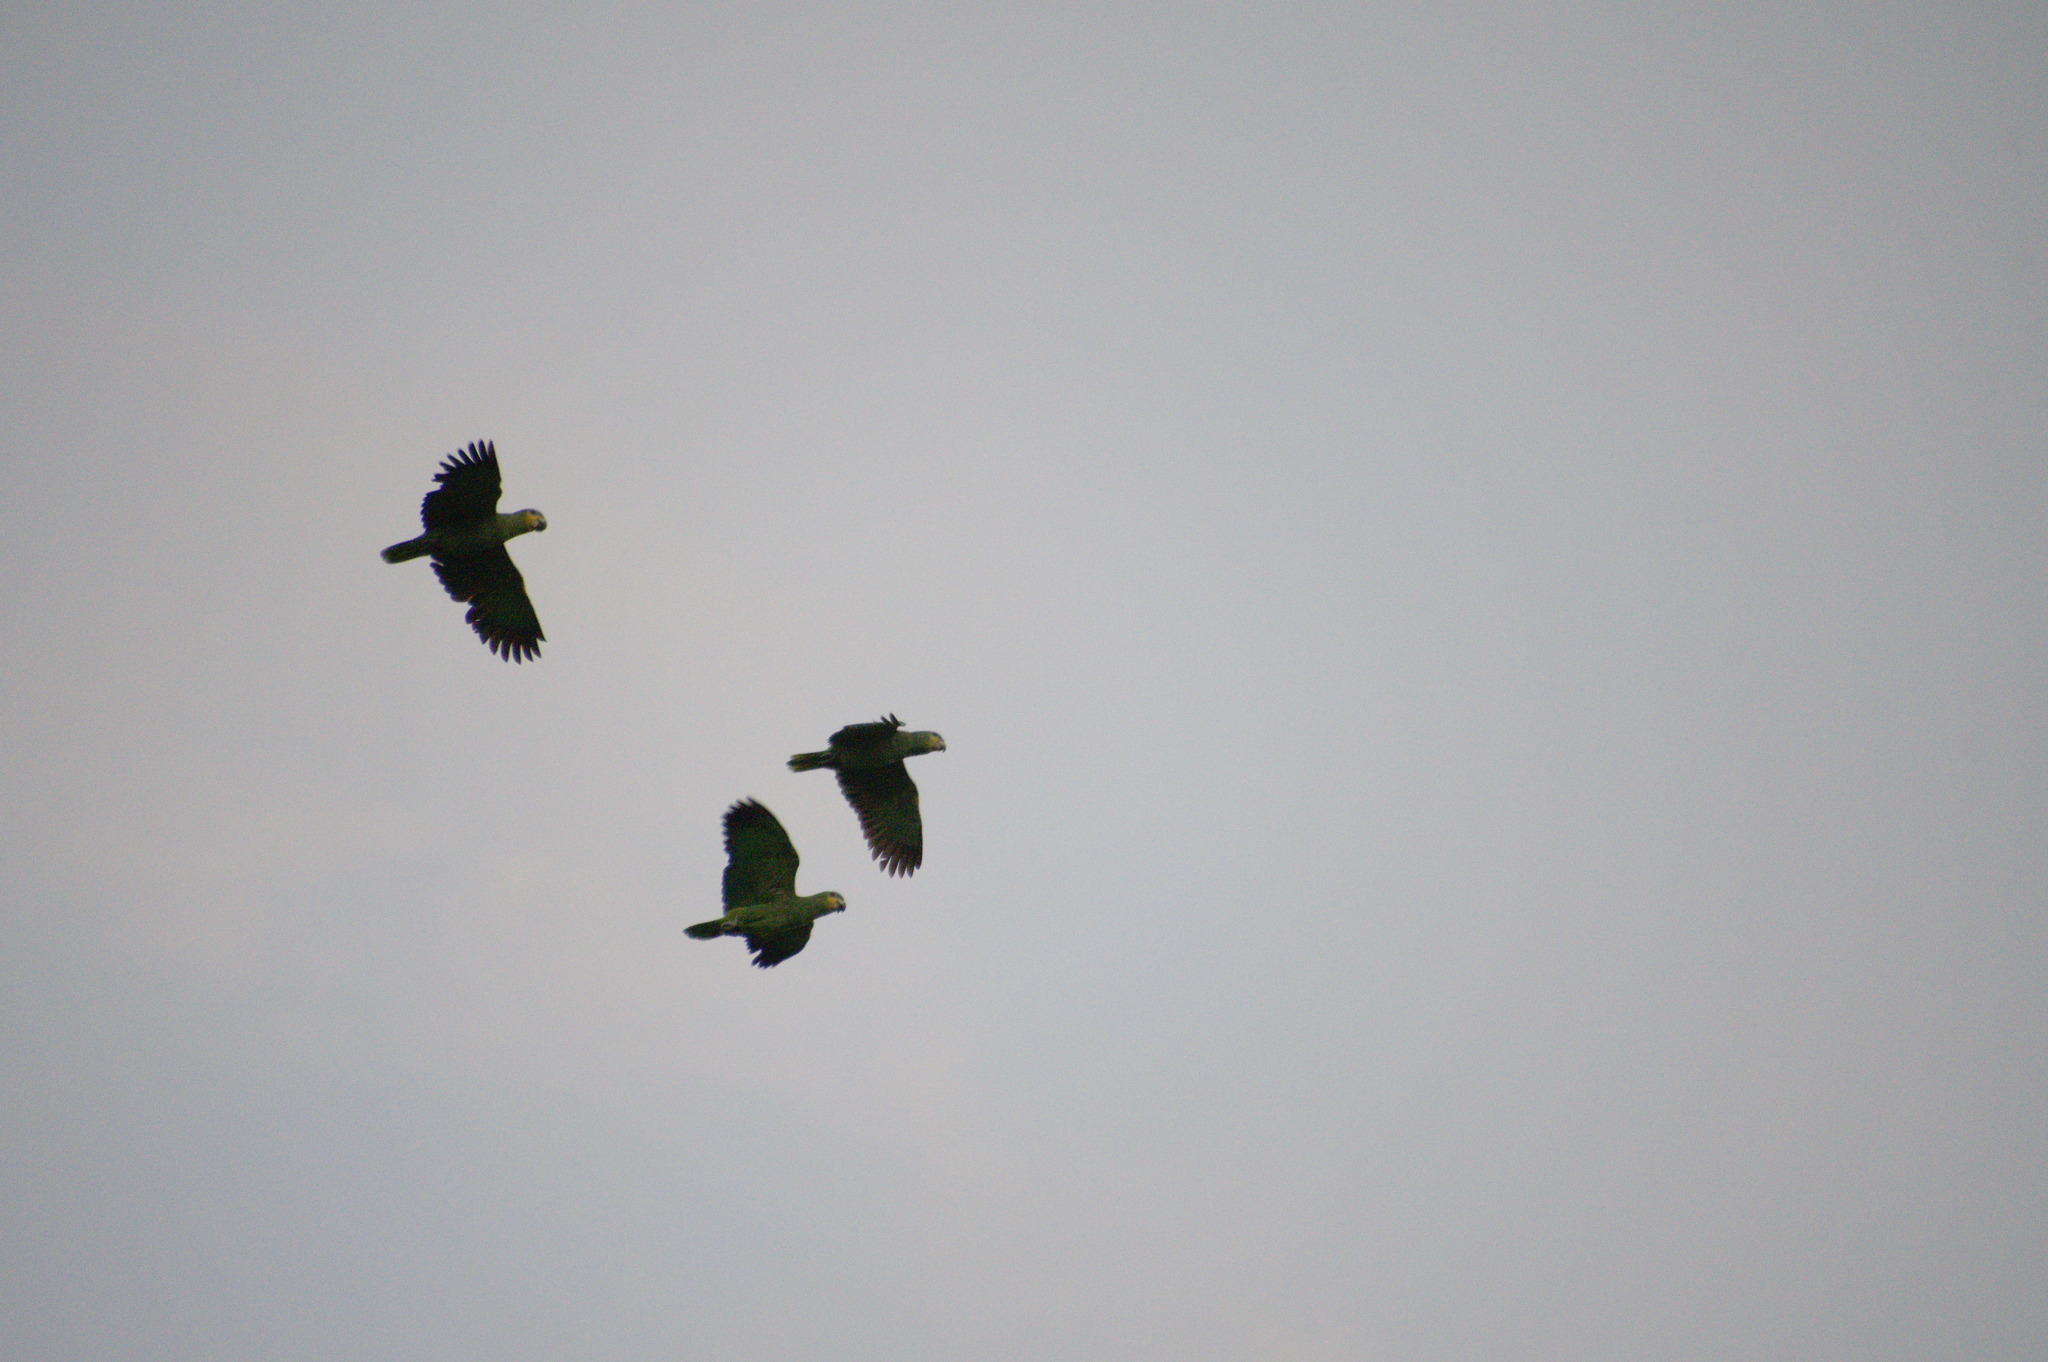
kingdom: Animalia
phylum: Chordata
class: Aves
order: Psittaciformes
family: Psittacidae
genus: Amazona
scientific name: Amazona amazonica
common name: Orange-winged amazon
